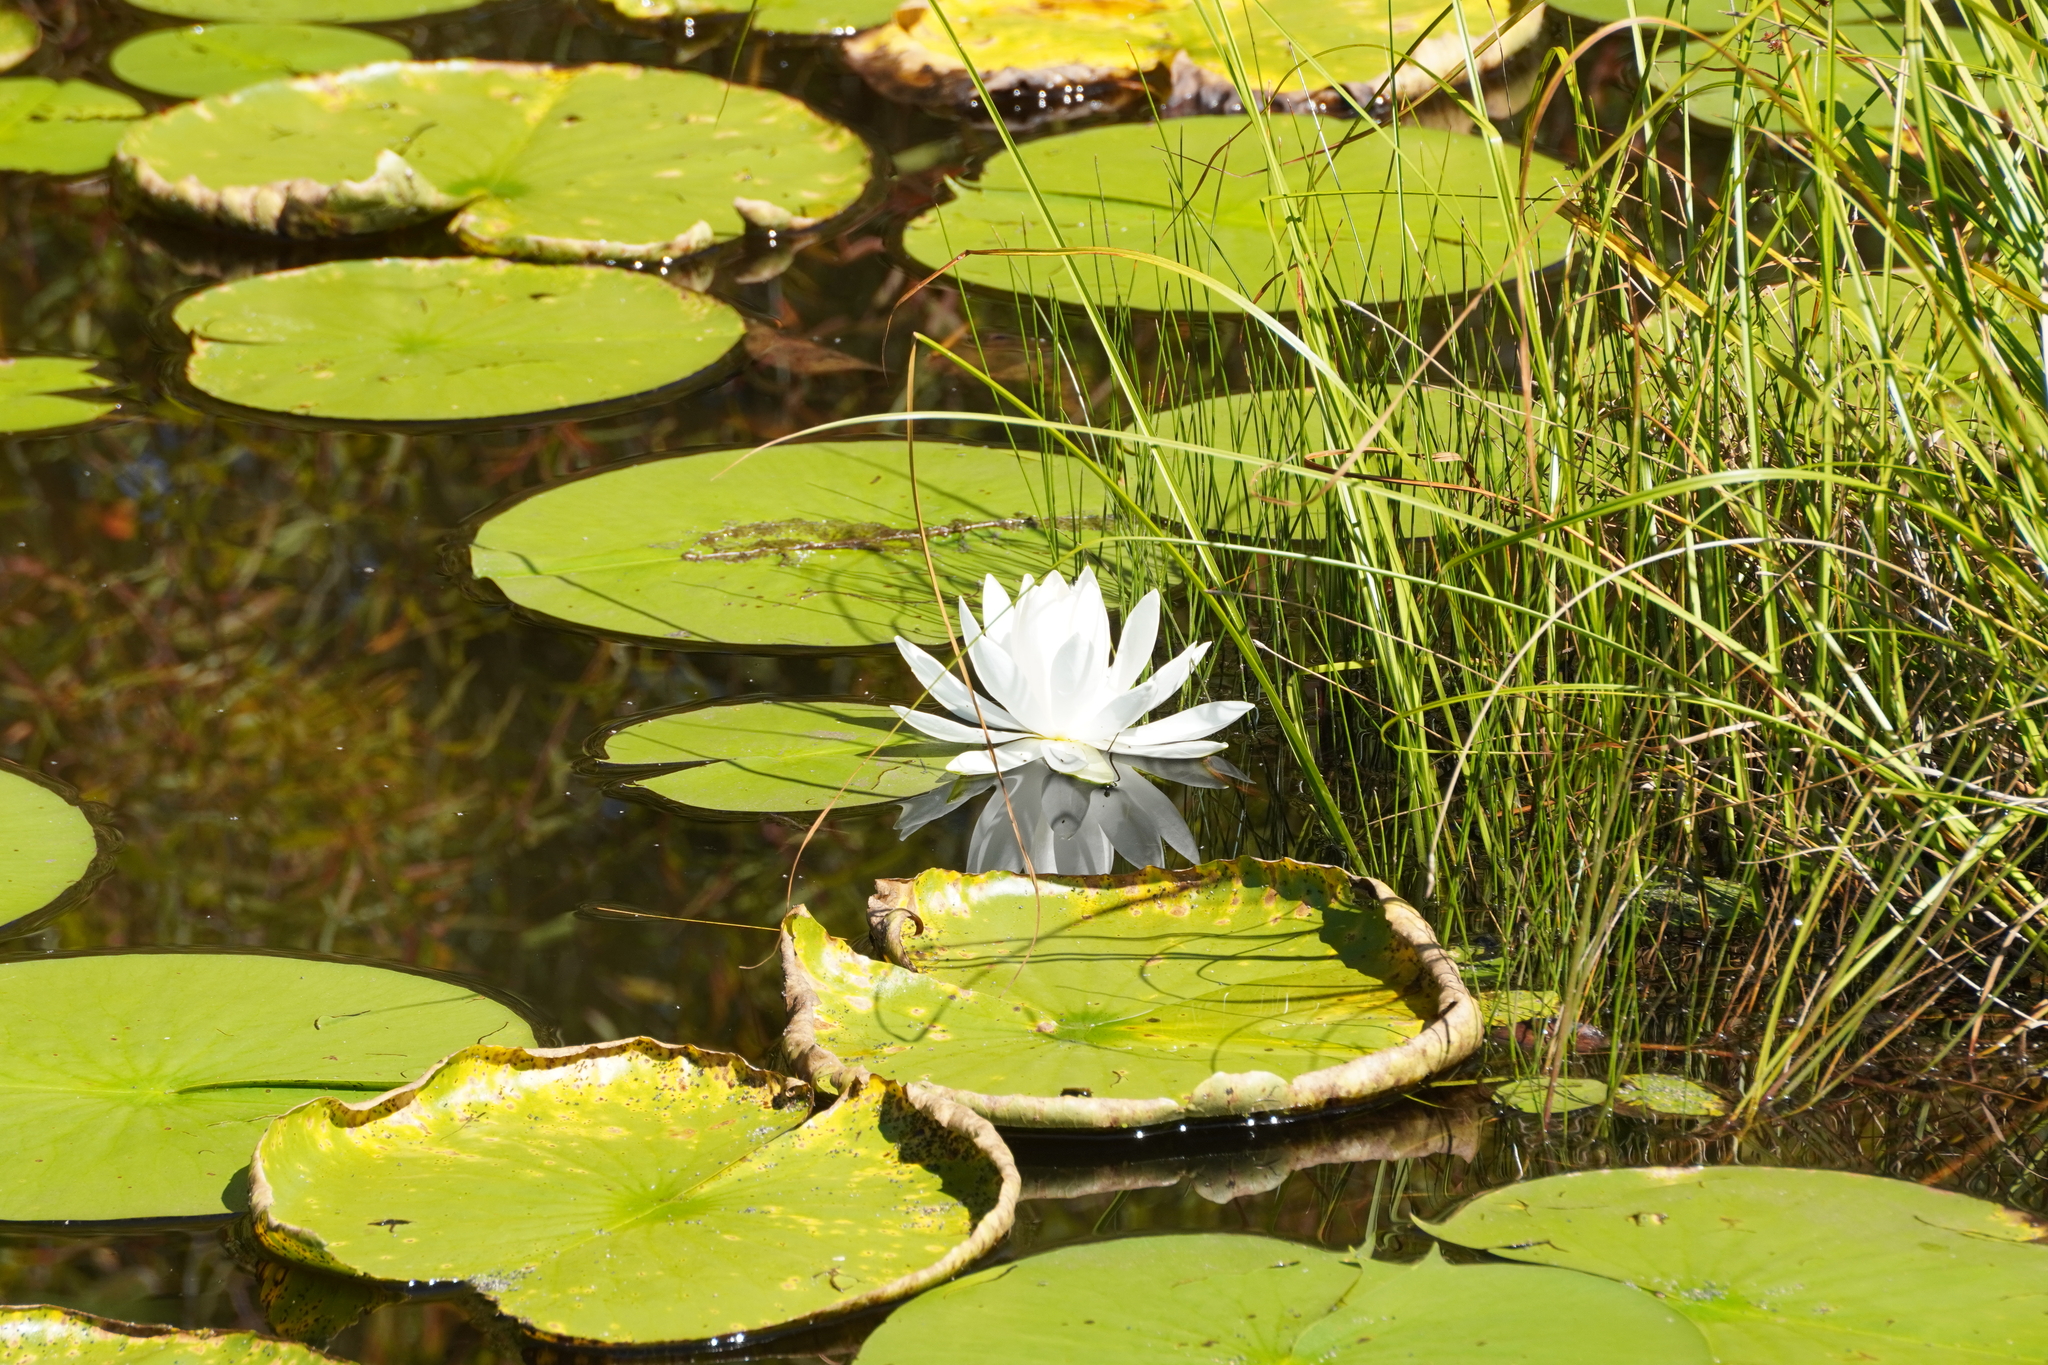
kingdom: Plantae
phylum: Tracheophyta
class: Magnoliopsida
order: Nymphaeales
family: Nymphaeaceae
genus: Nymphaea
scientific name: Nymphaea odorata
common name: Fragrant water-lily
